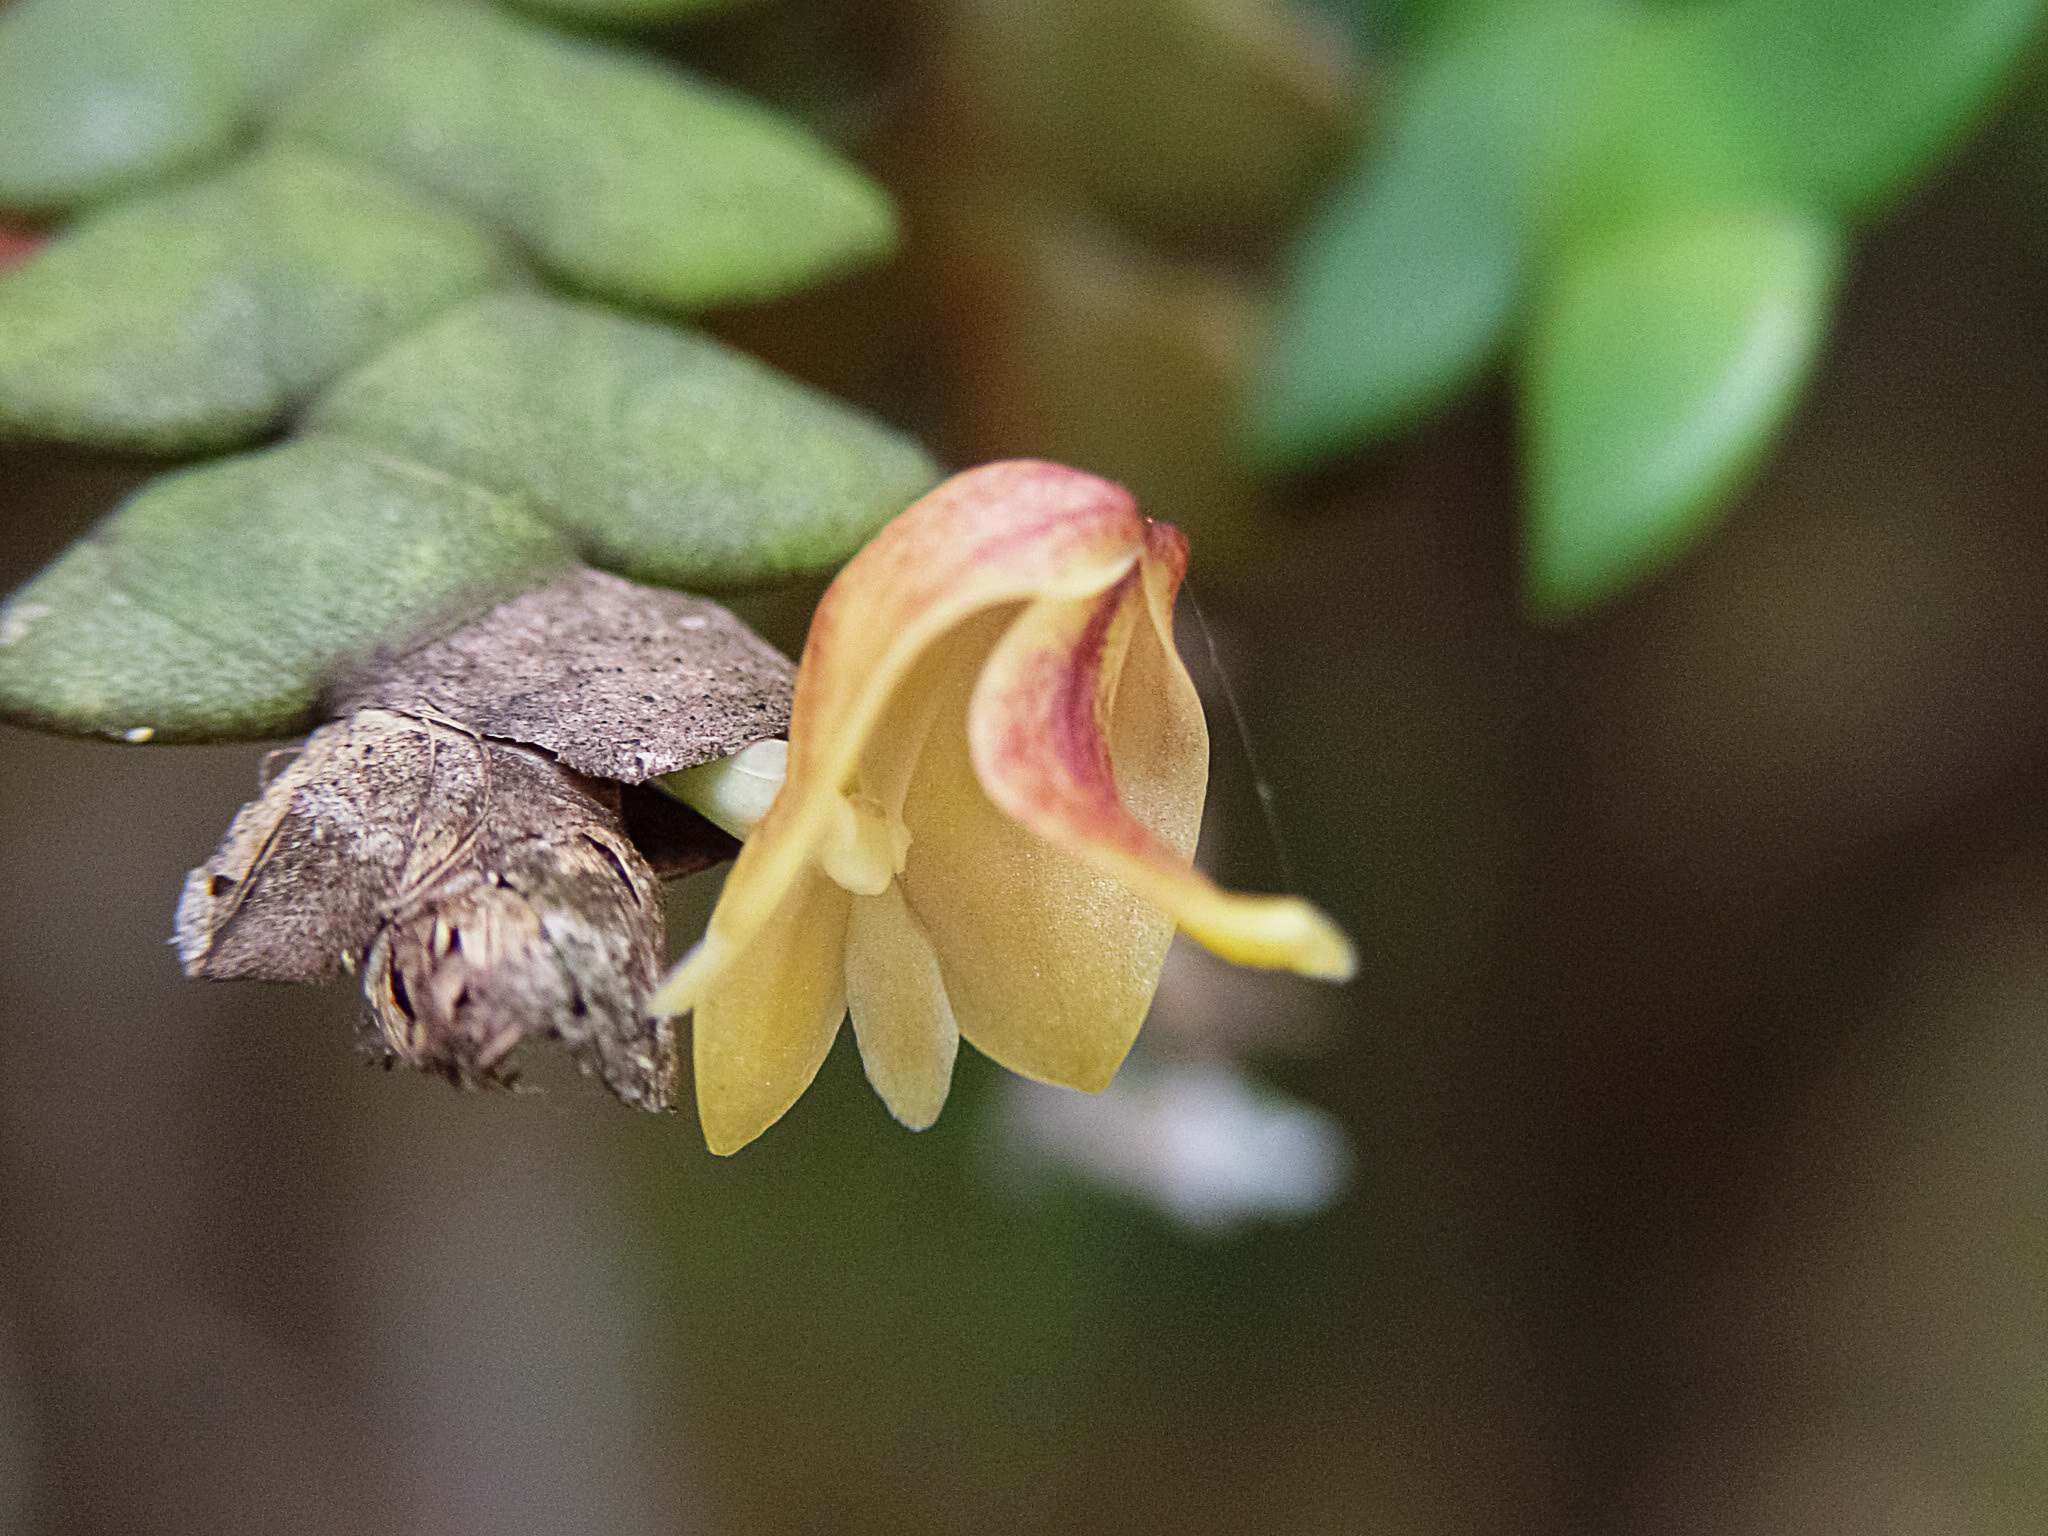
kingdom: Plantae
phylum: Tracheophyta
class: Liliopsida
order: Asparagales
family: Orchidaceae
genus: Dendrobium
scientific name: Dendrobium leonis
